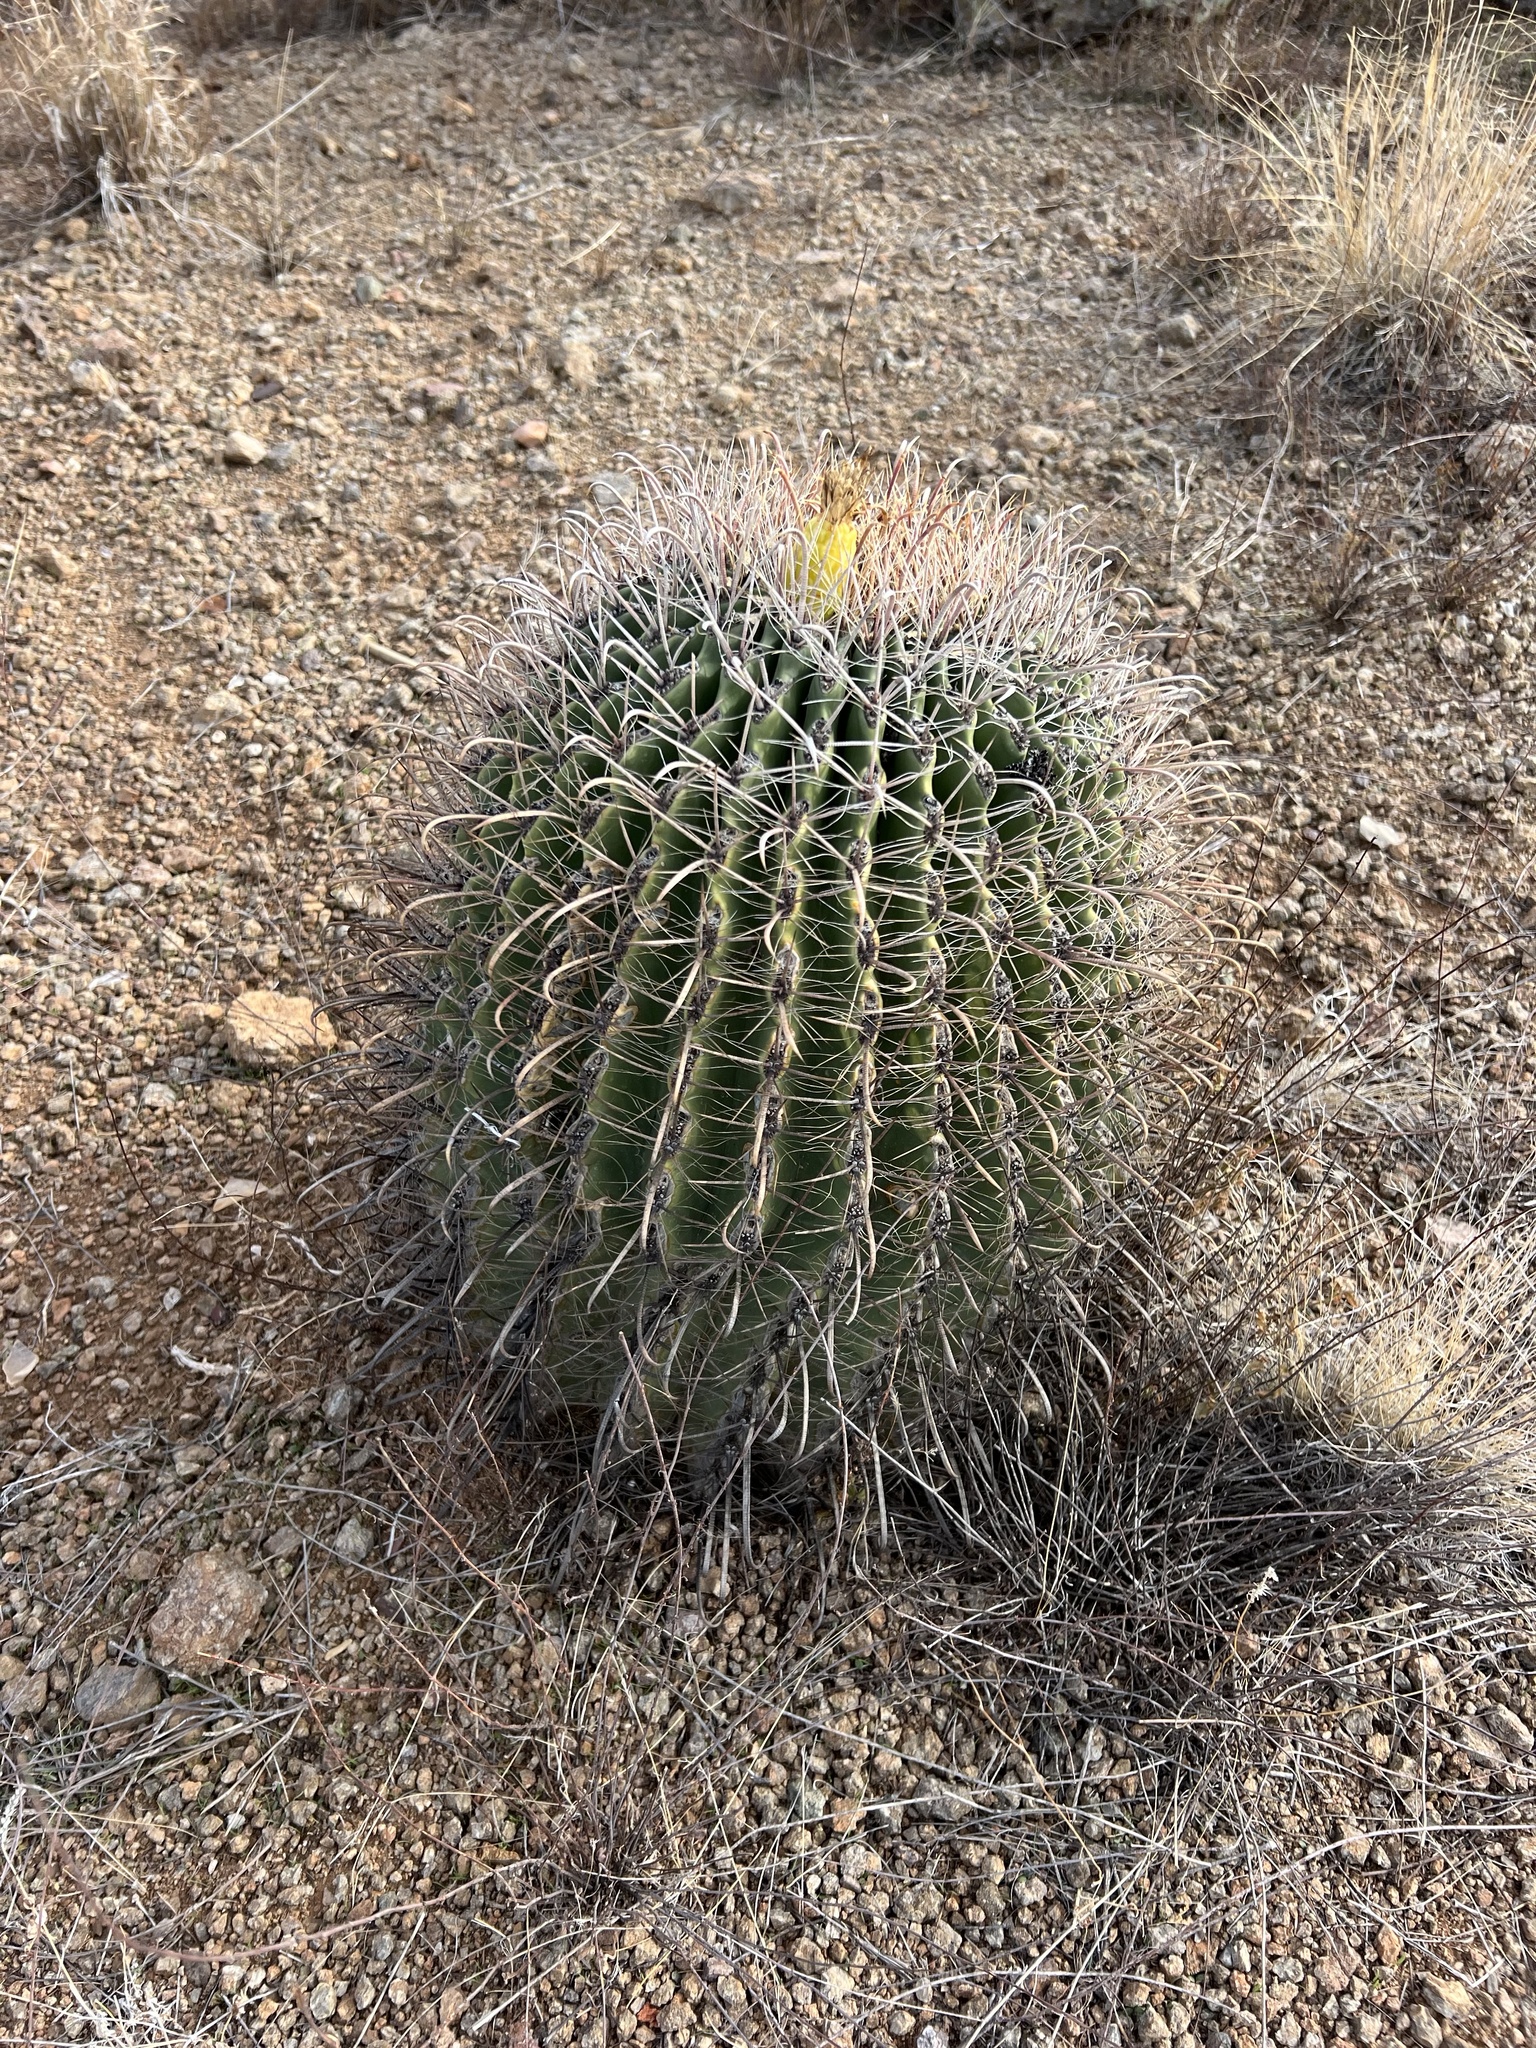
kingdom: Plantae
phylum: Tracheophyta
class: Magnoliopsida
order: Caryophyllales
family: Cactaceae
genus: Ferocactus
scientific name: Ferocactus wislizeni
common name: Candy barrel cactus
